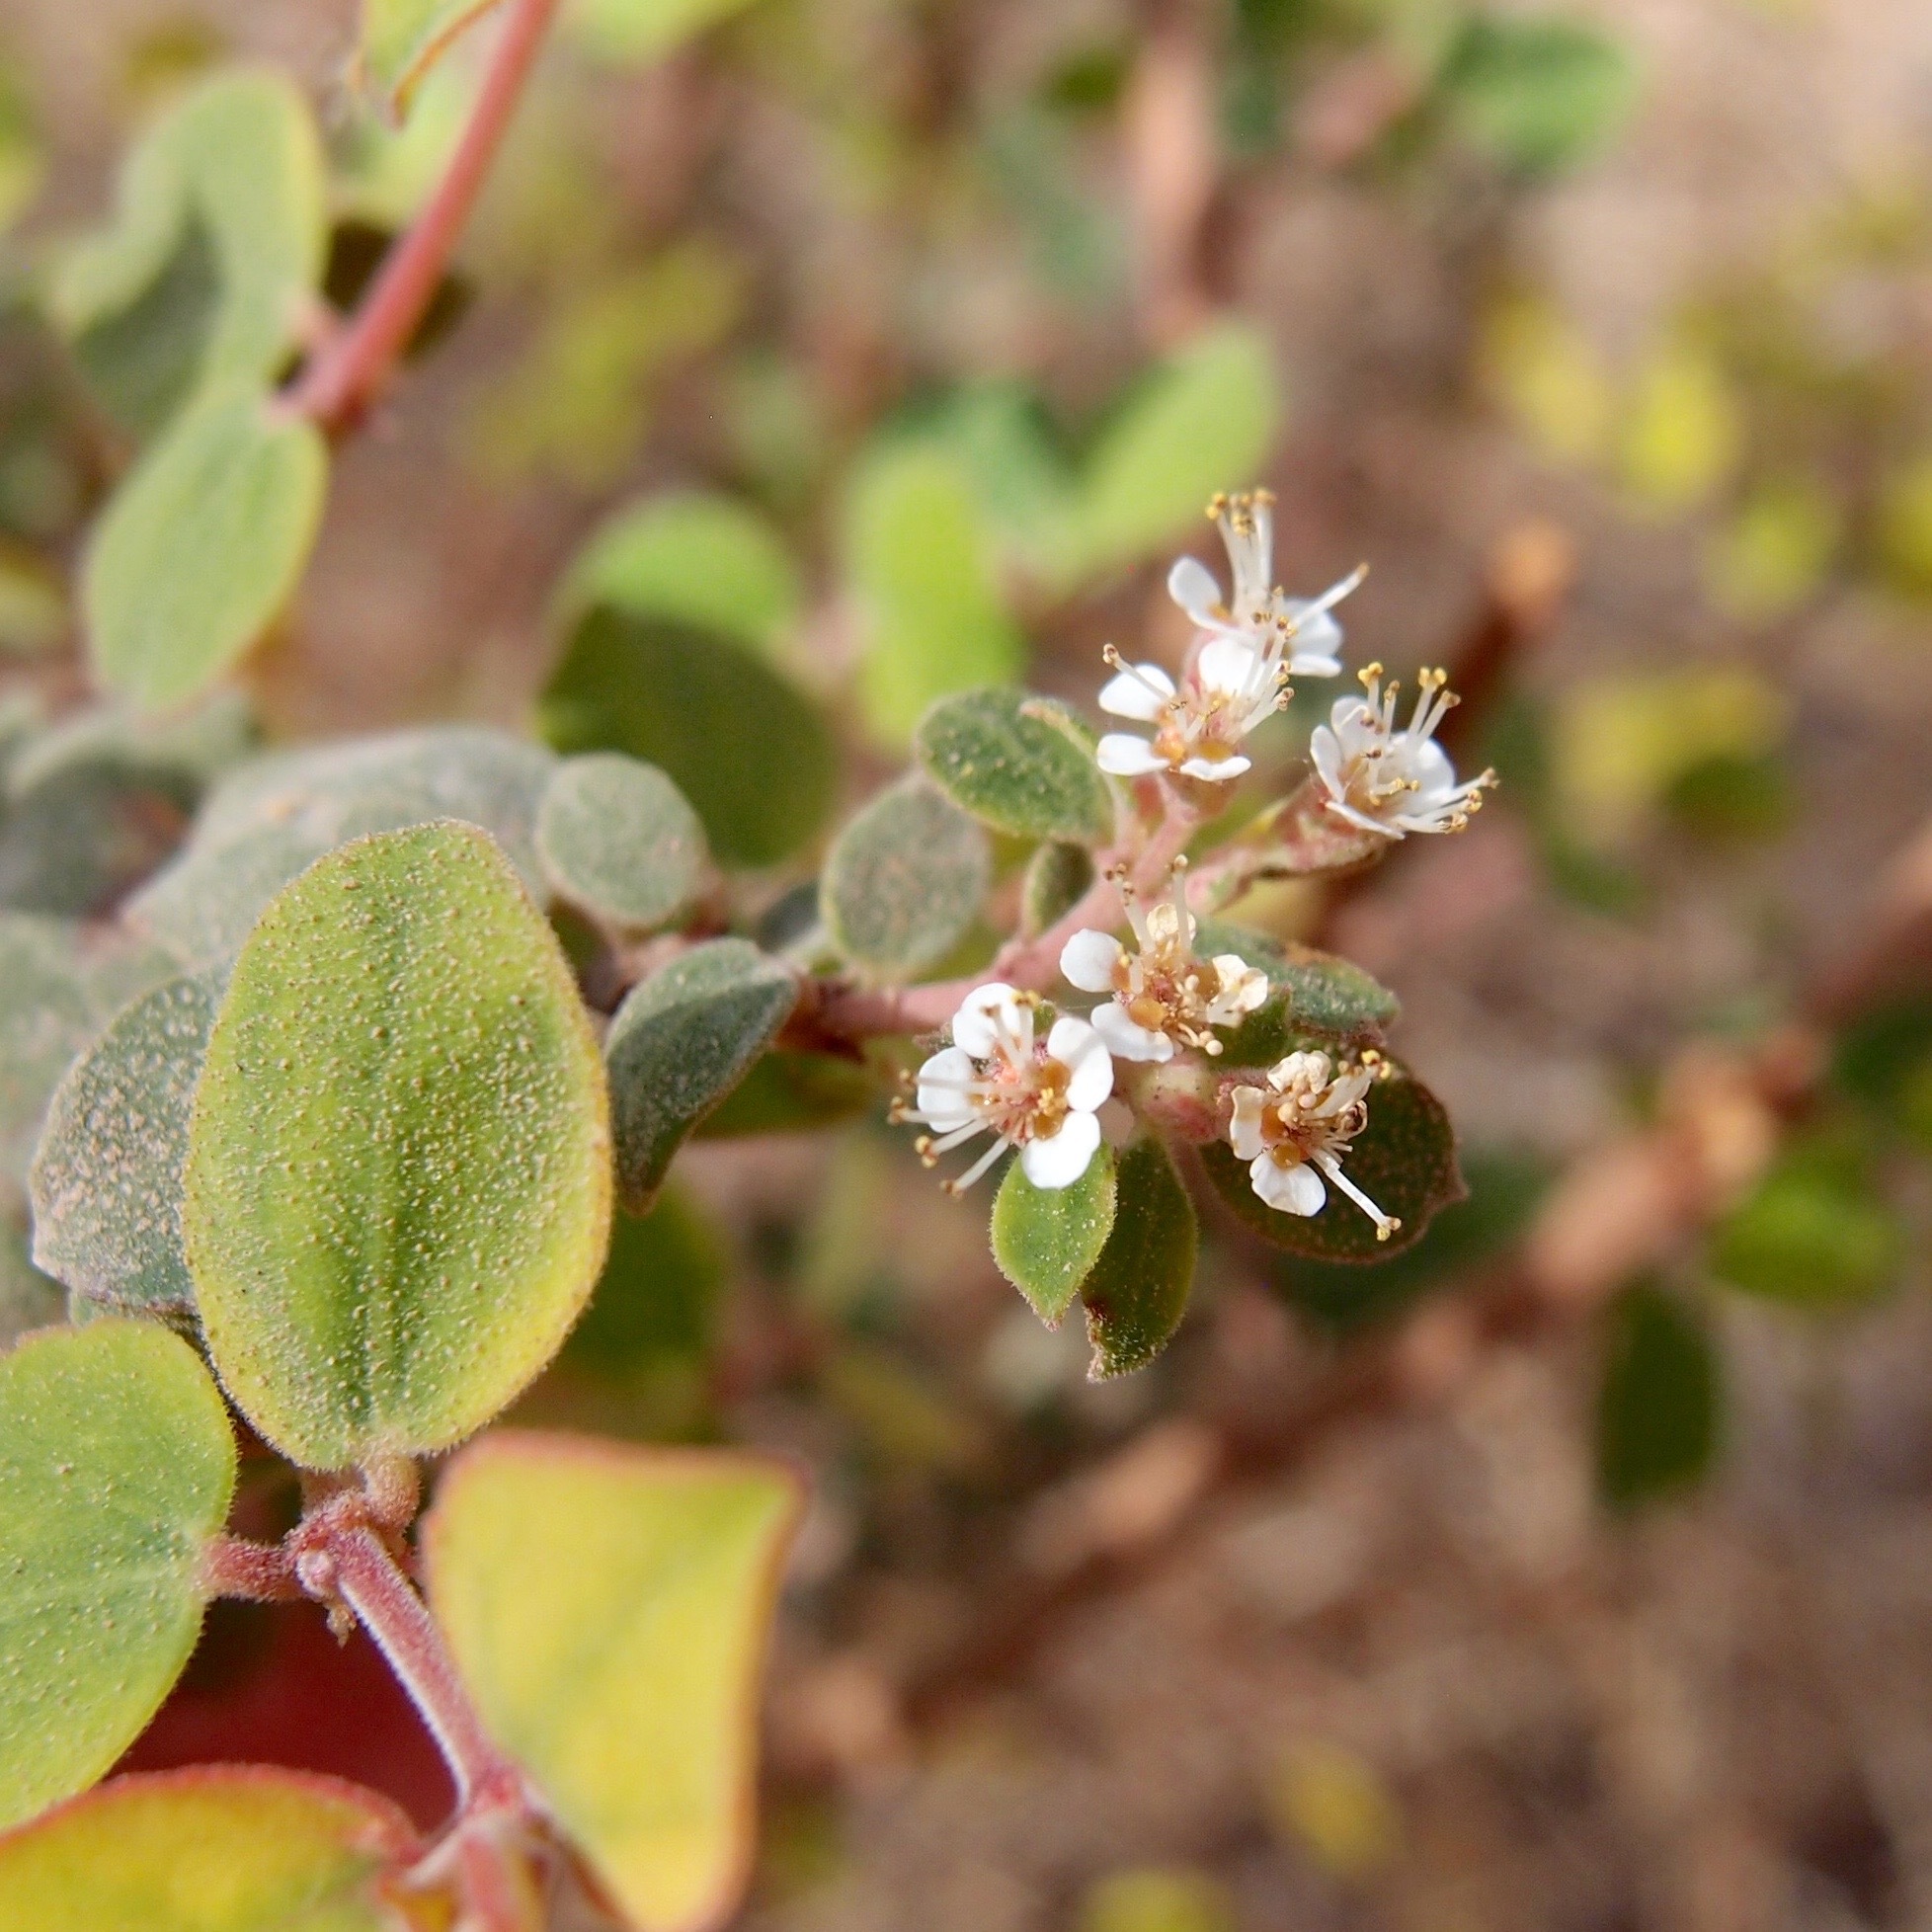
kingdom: Plantae
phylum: Tracheophyta
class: Magnoliopsida
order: Malpighiales
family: Euphorbiaceae
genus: Euphorbia
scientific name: Euphorbia tomentulosa
